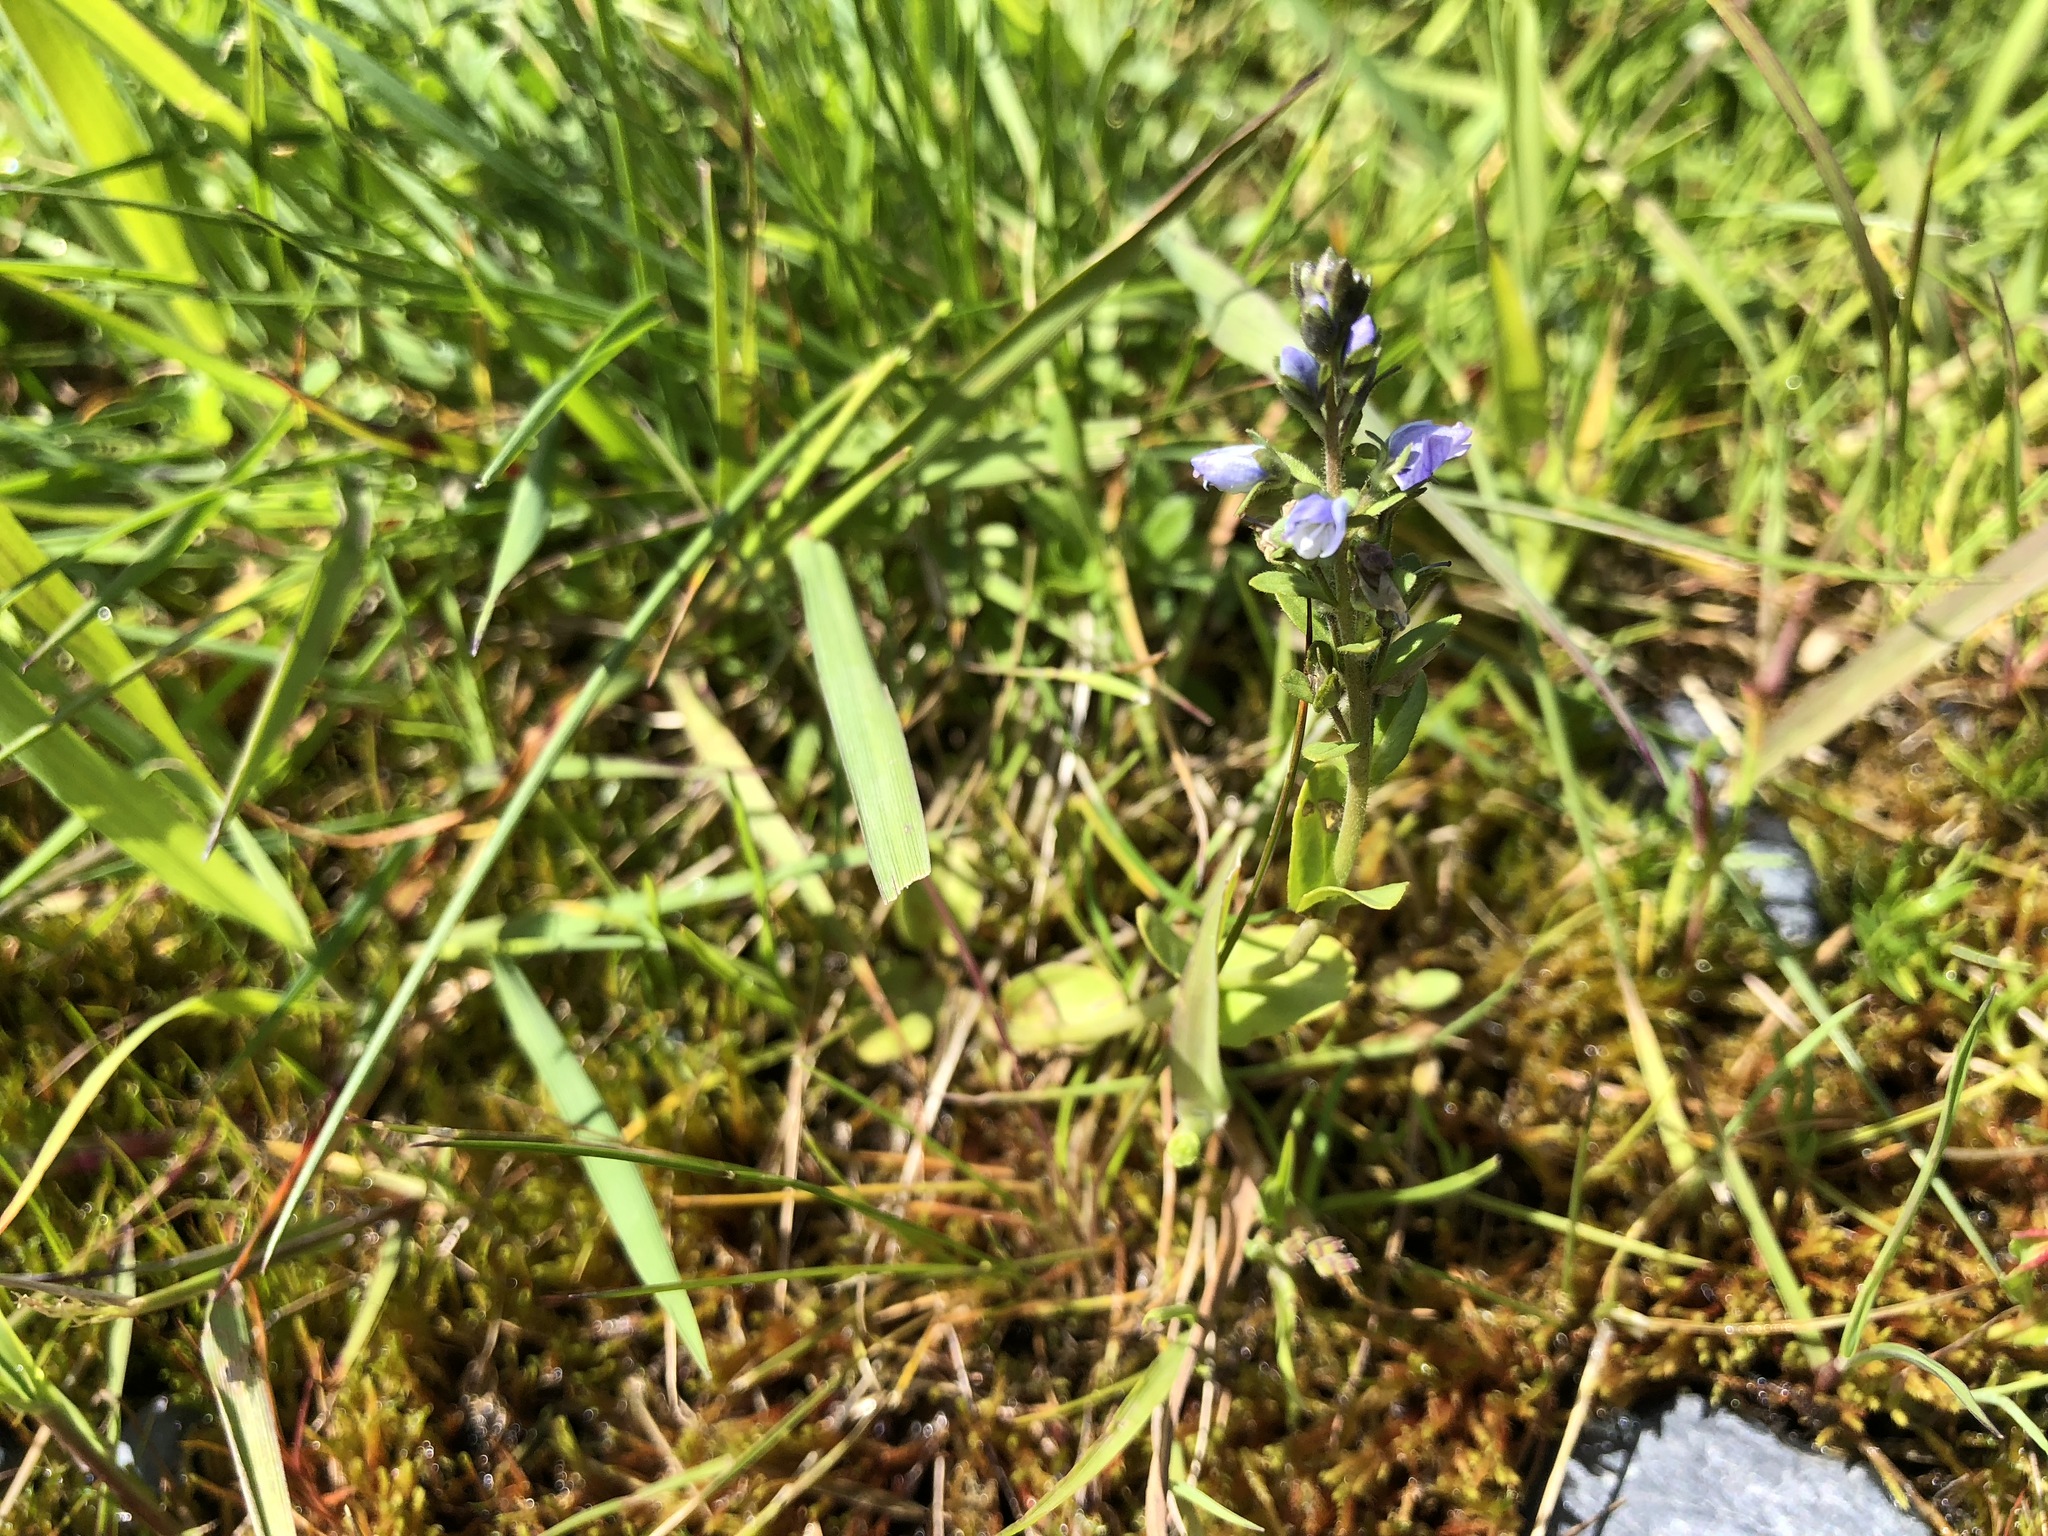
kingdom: Plantae
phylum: Tracheophyta
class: Magnoliopsida
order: Lamiales
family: Plantaginaceae
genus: Veronica
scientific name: Veronica serpyllifolia
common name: Thyme-leaved speedwell
